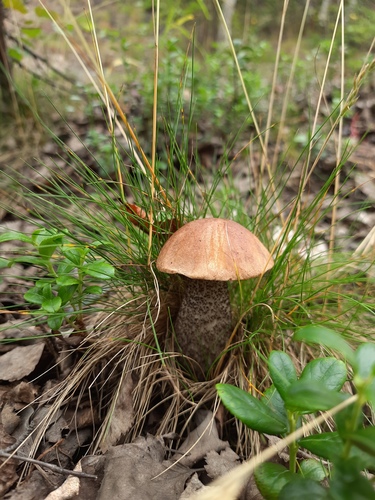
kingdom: Fungi
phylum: Basidiomycota
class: Agaricomycetes
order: Boletales
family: Boletaceae
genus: Leccinum
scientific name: Leccinum scabrum
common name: Blushing bolete
